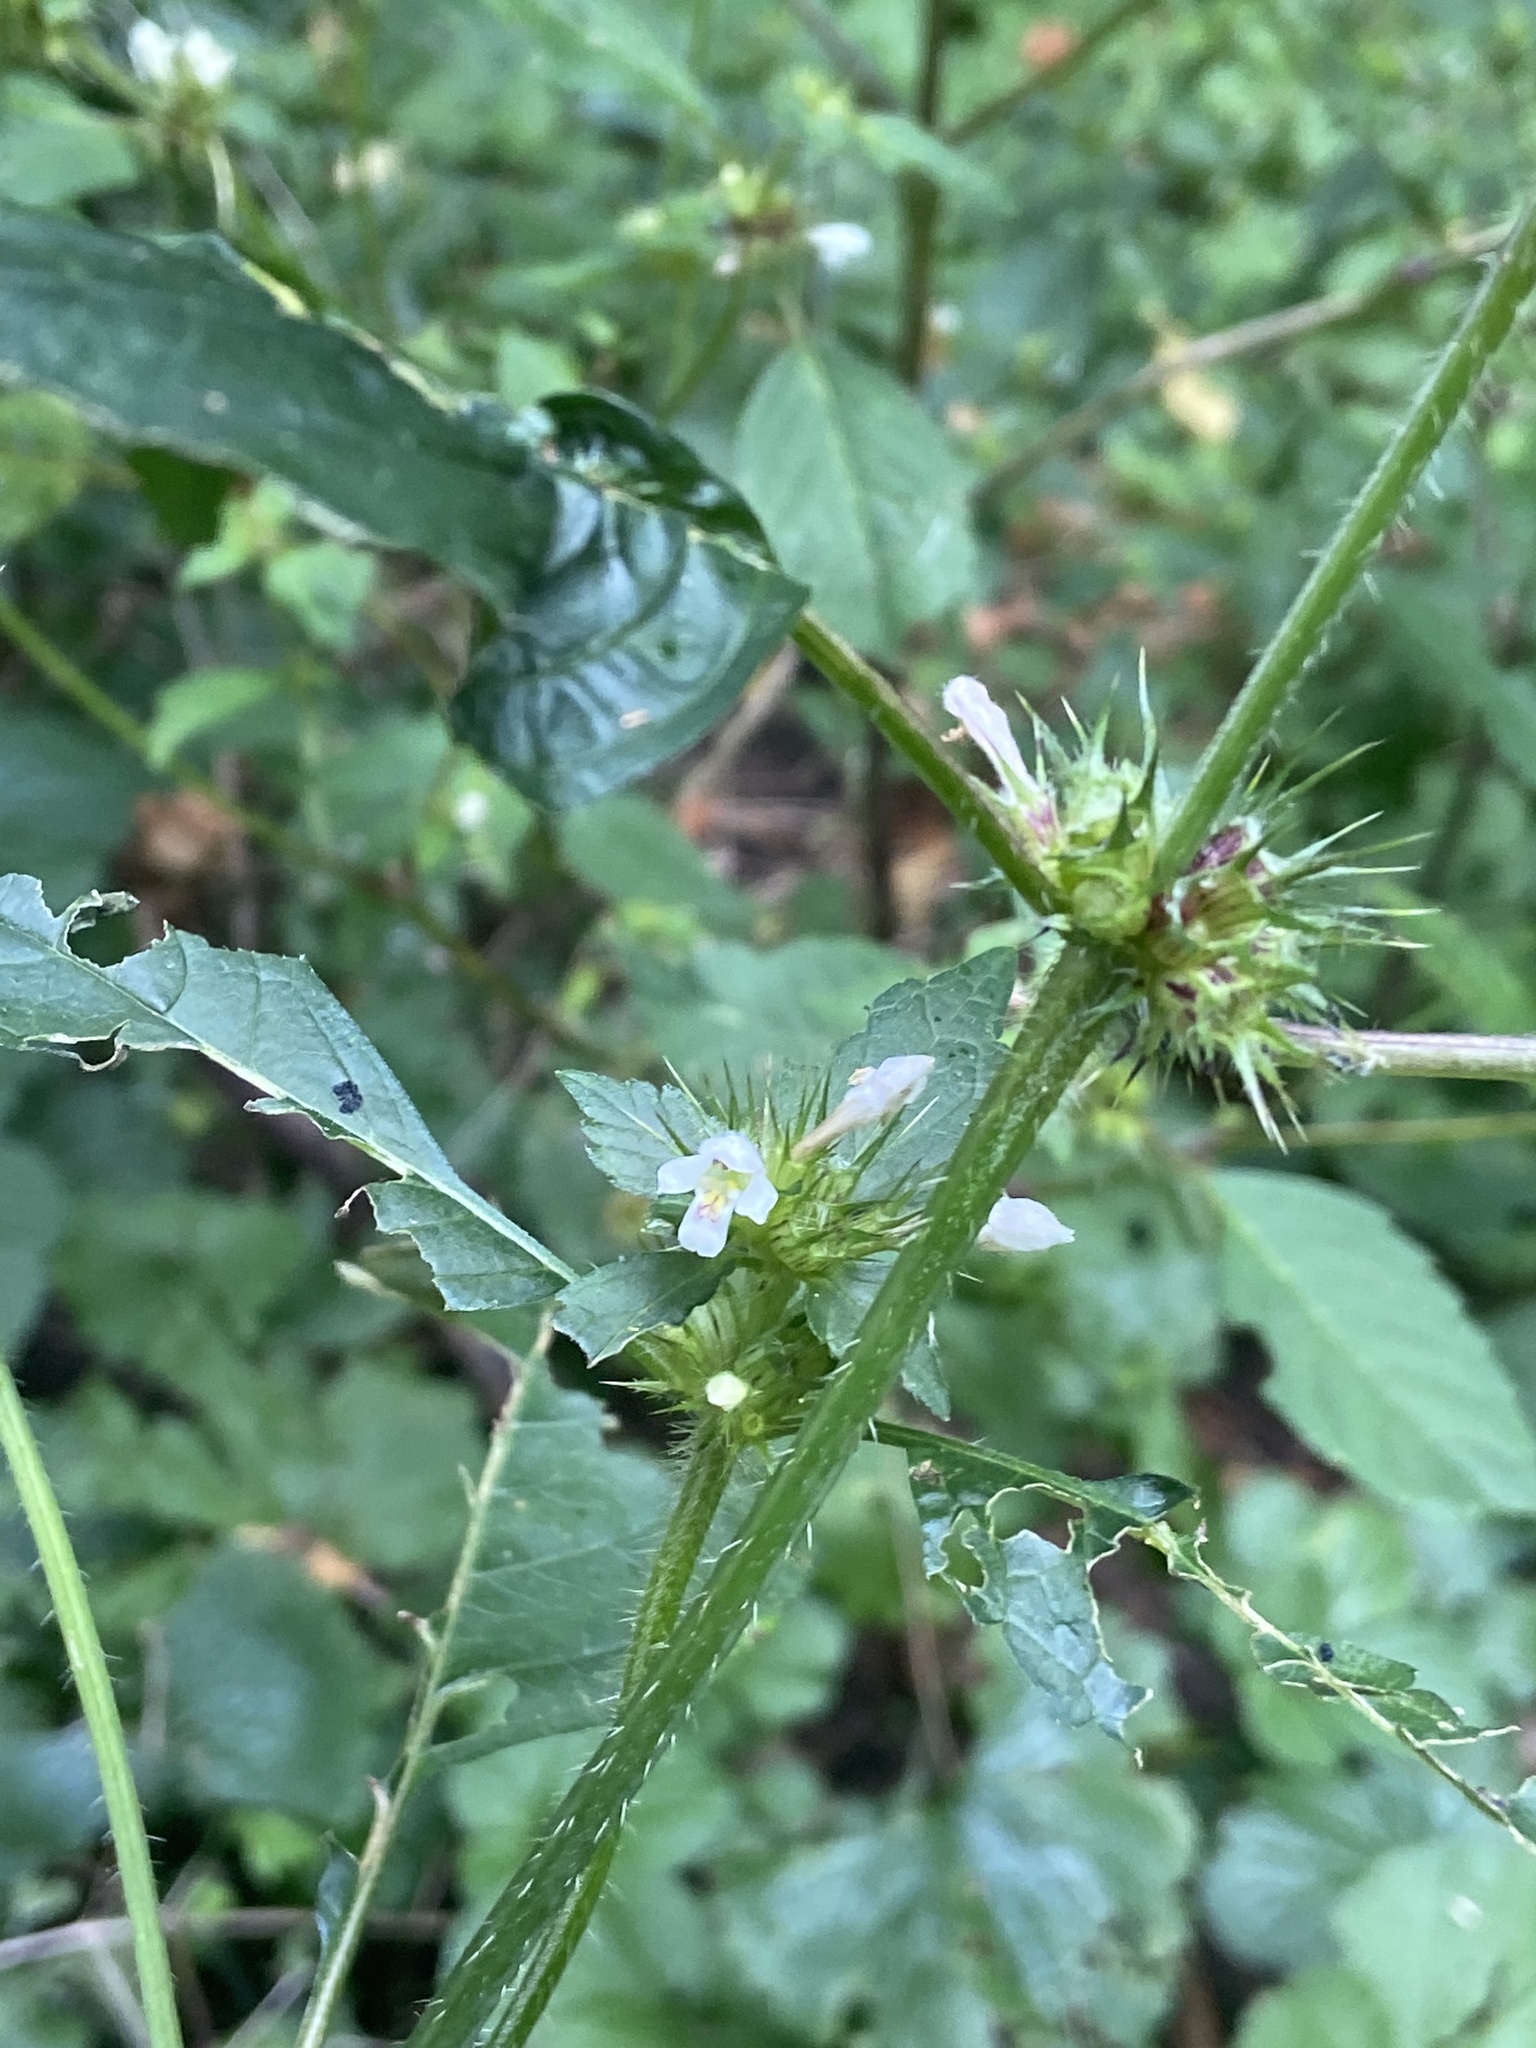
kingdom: Plantae
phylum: Tracheophyta
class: Magnoliopsida
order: Lamiales
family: Lamiaceae
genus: Galeopsis
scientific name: Galeopsis tetrahit
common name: Common hemp-nettle
